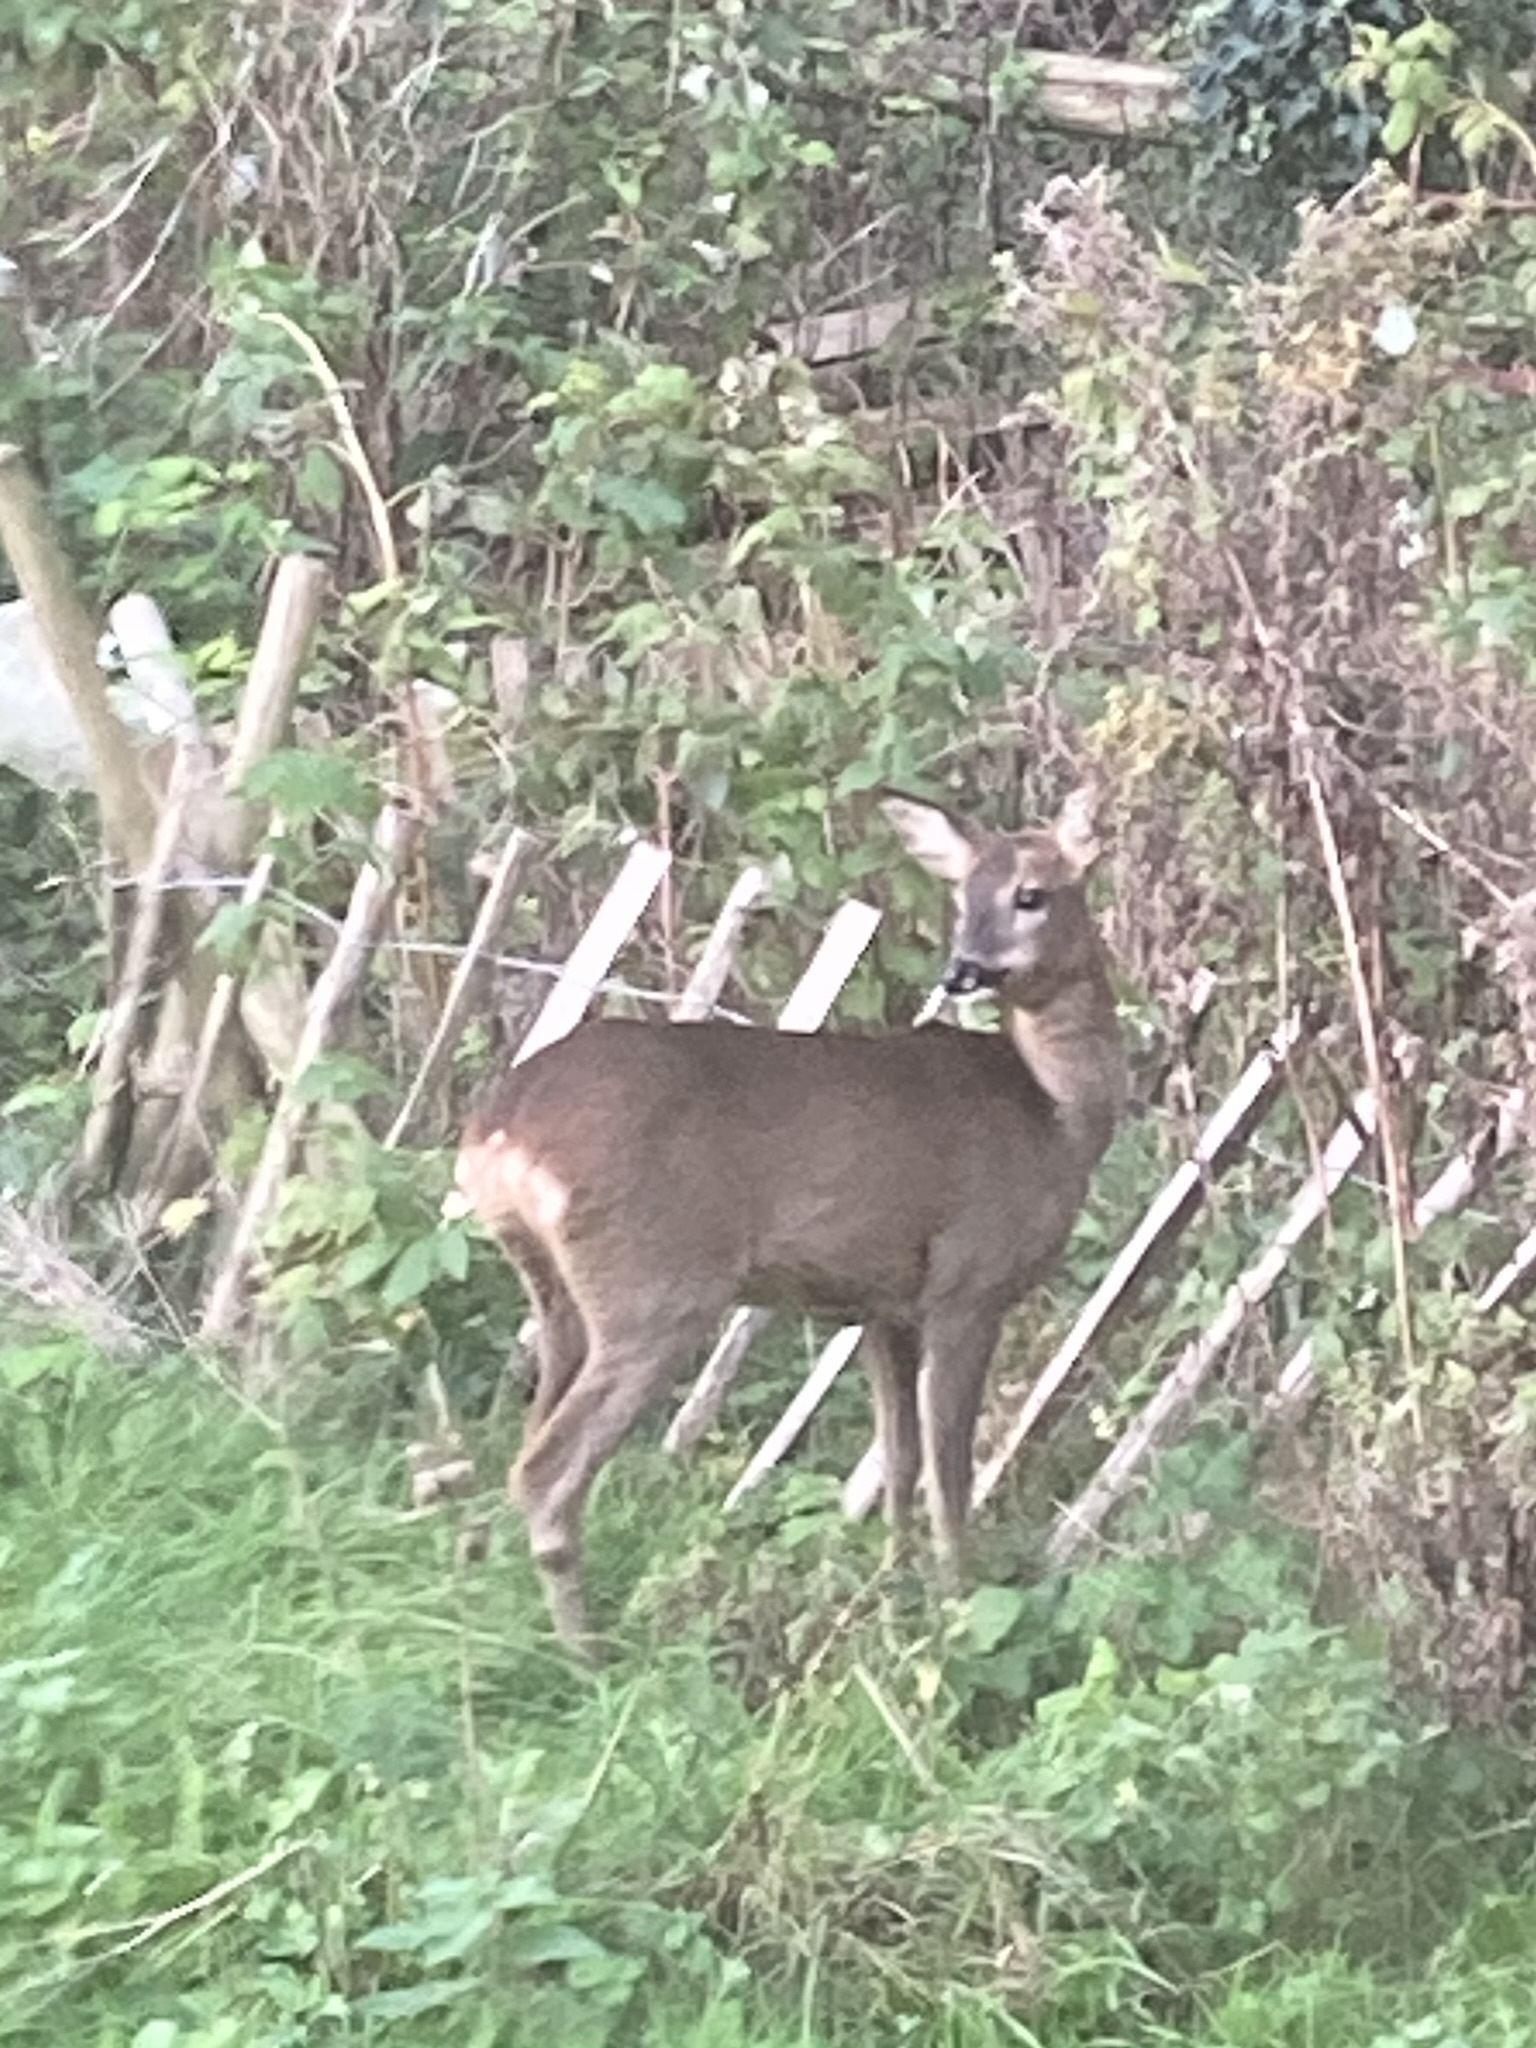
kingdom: Animalia
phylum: Chordata
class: Mammalia
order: Artiodactyla
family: Cervidae
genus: Capreolus
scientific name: Capreolus capreolus
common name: Western roe deer
